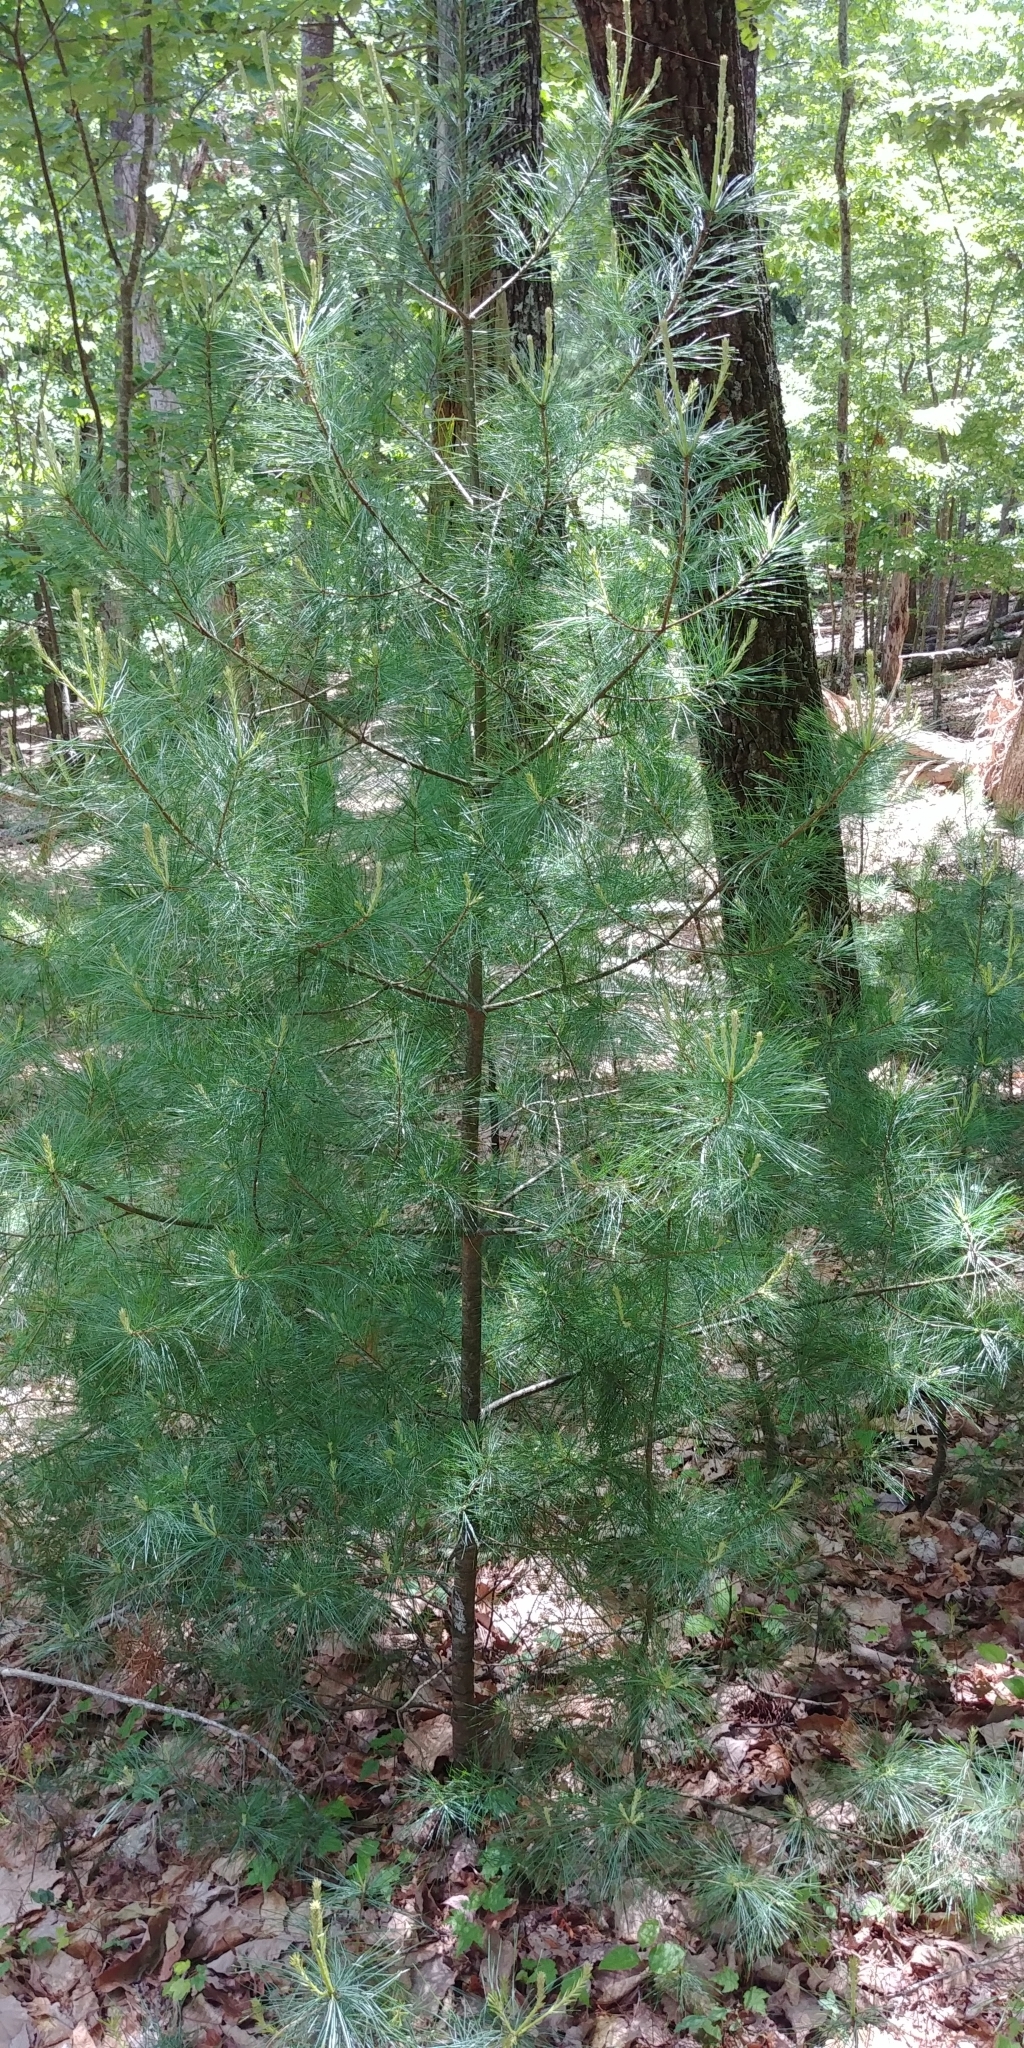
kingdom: Plantae
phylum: Tracheophyta
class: Pinopsida
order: Pinales
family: Pinaceae
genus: Pinus
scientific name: Pinus strobus
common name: Weymouth pine
